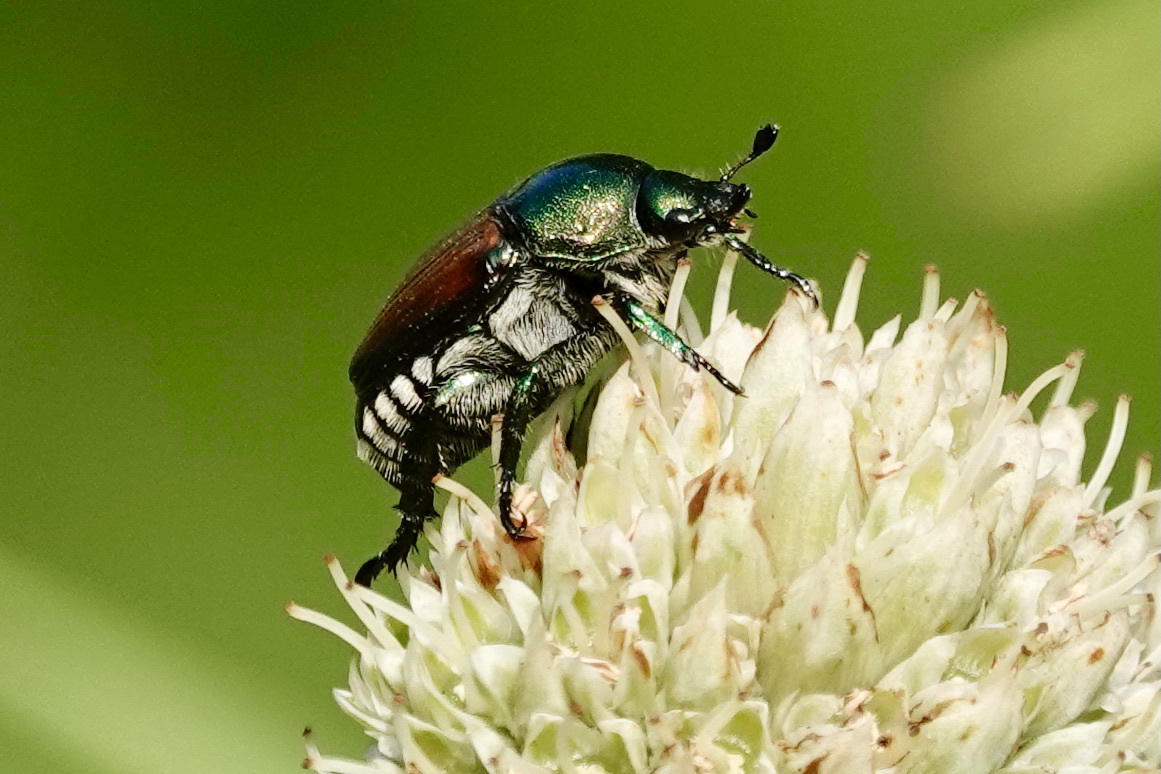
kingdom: Animalia
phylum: Arthropoda
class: Insecta
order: Coleoptera
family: Scarabaeidae
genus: Popillia
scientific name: Popillia japonica
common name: Japanese beetle
